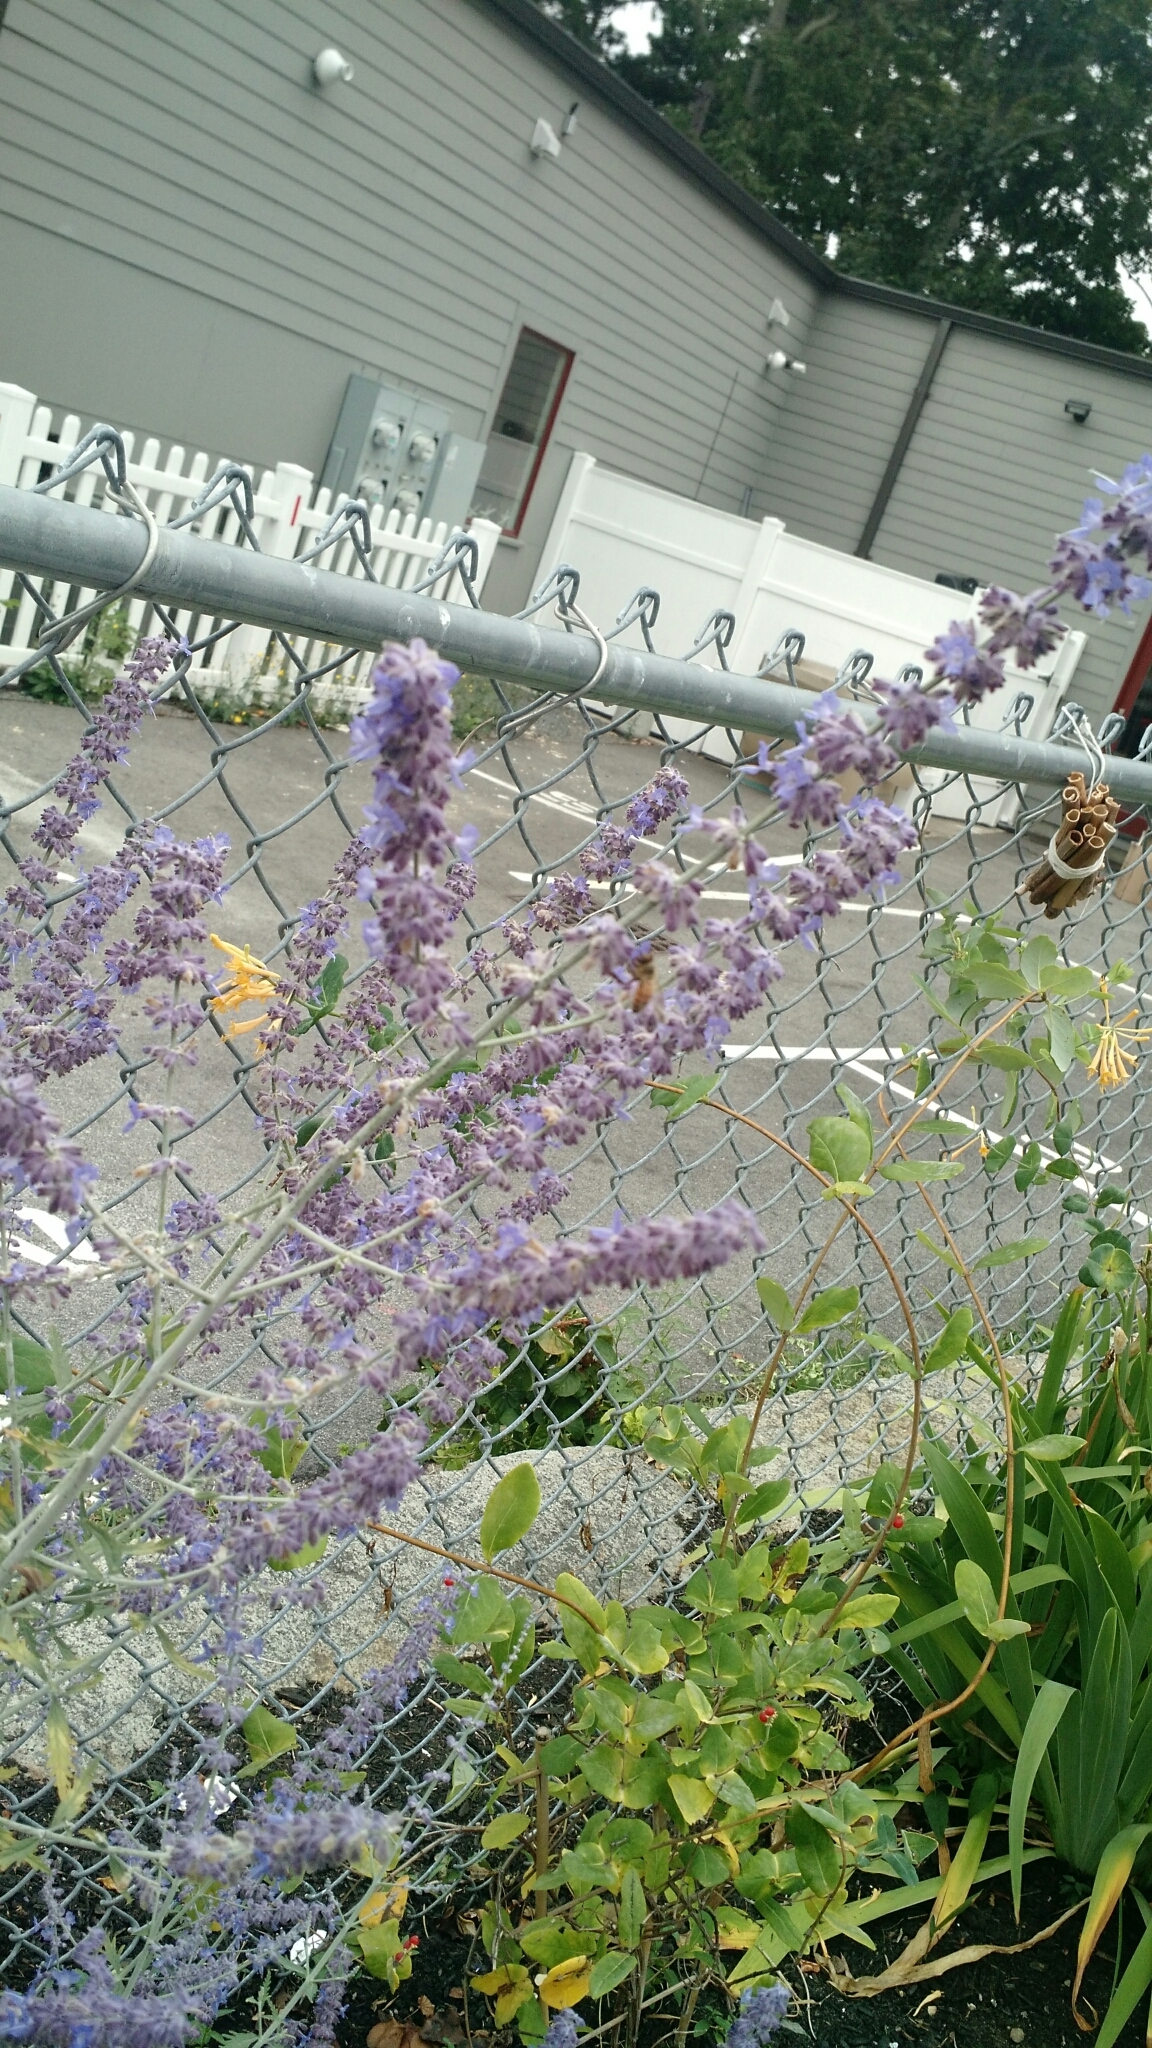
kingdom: Animalia
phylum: Arthropoda
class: Insecta
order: Hymenoptera
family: Apidae
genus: Apis
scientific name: Apis mellifera
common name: Honey bee
